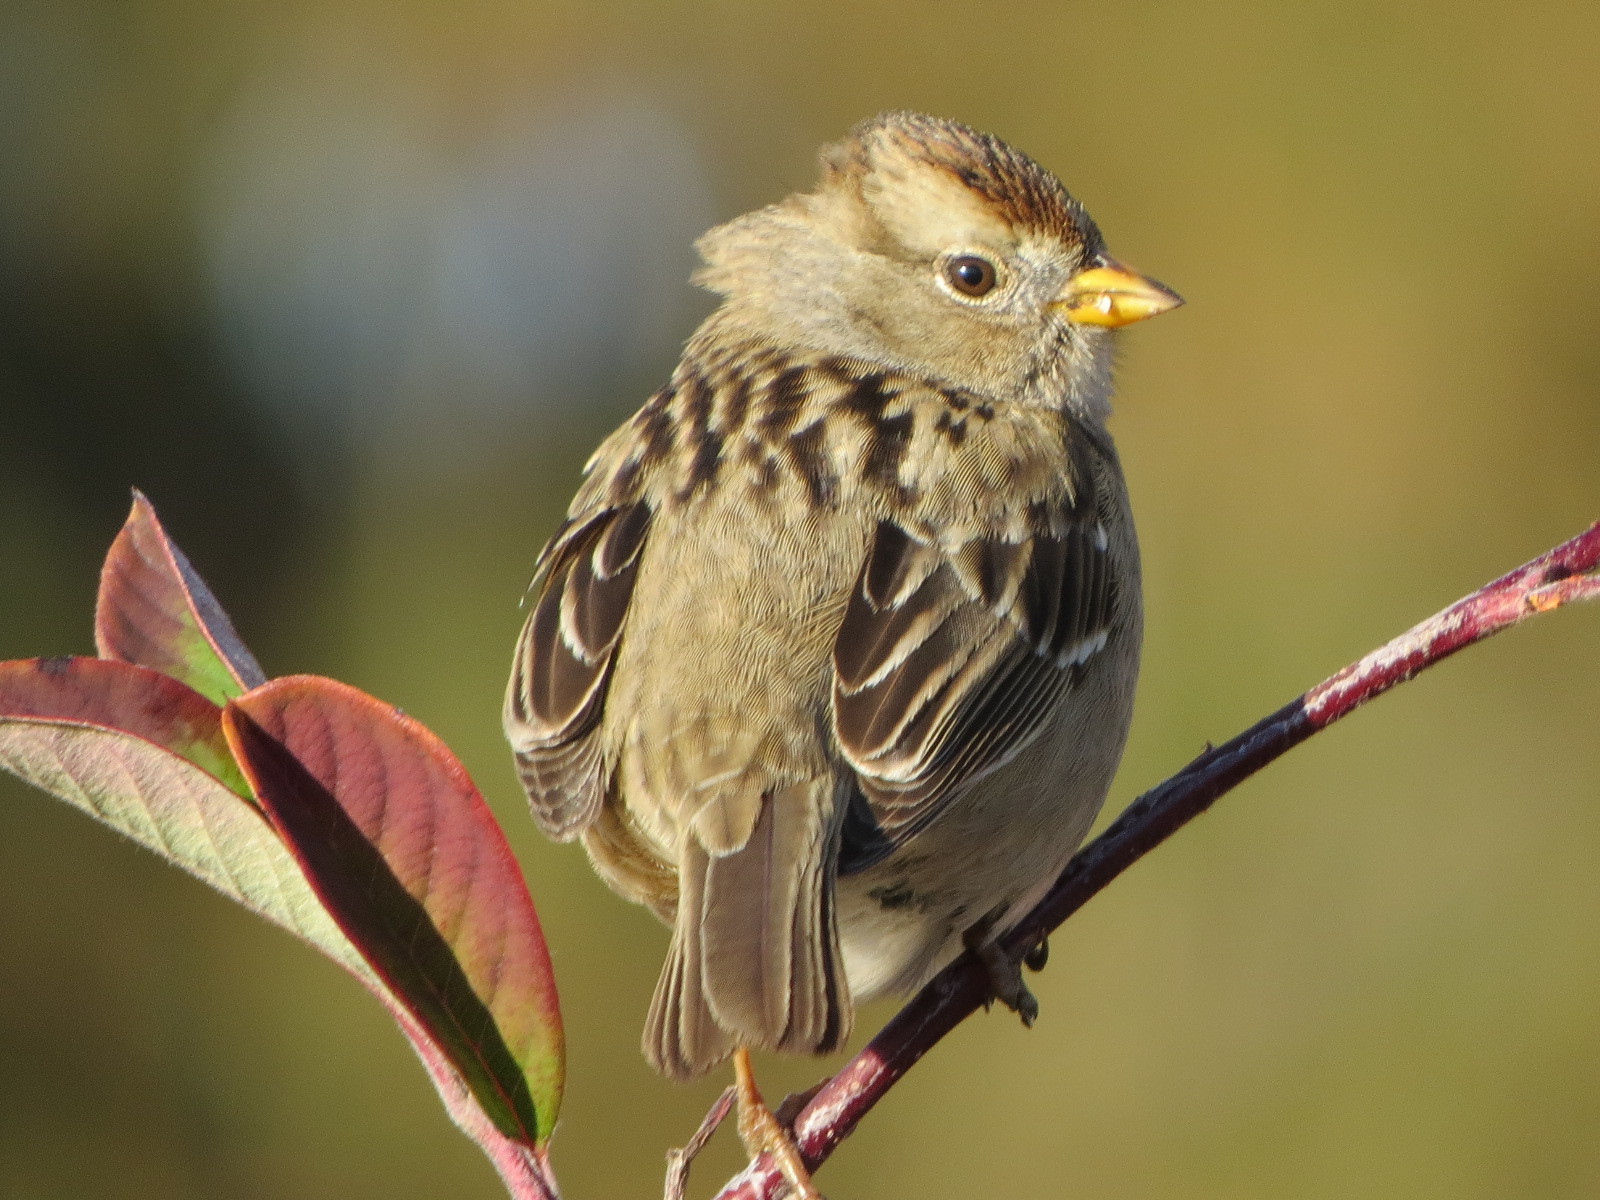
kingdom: Animalia
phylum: Chordata
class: Aves
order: Passeriformes
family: Passerellidae
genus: Zonotrichia
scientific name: Zonotrichia leucophrys
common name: White-crowned sparrow
